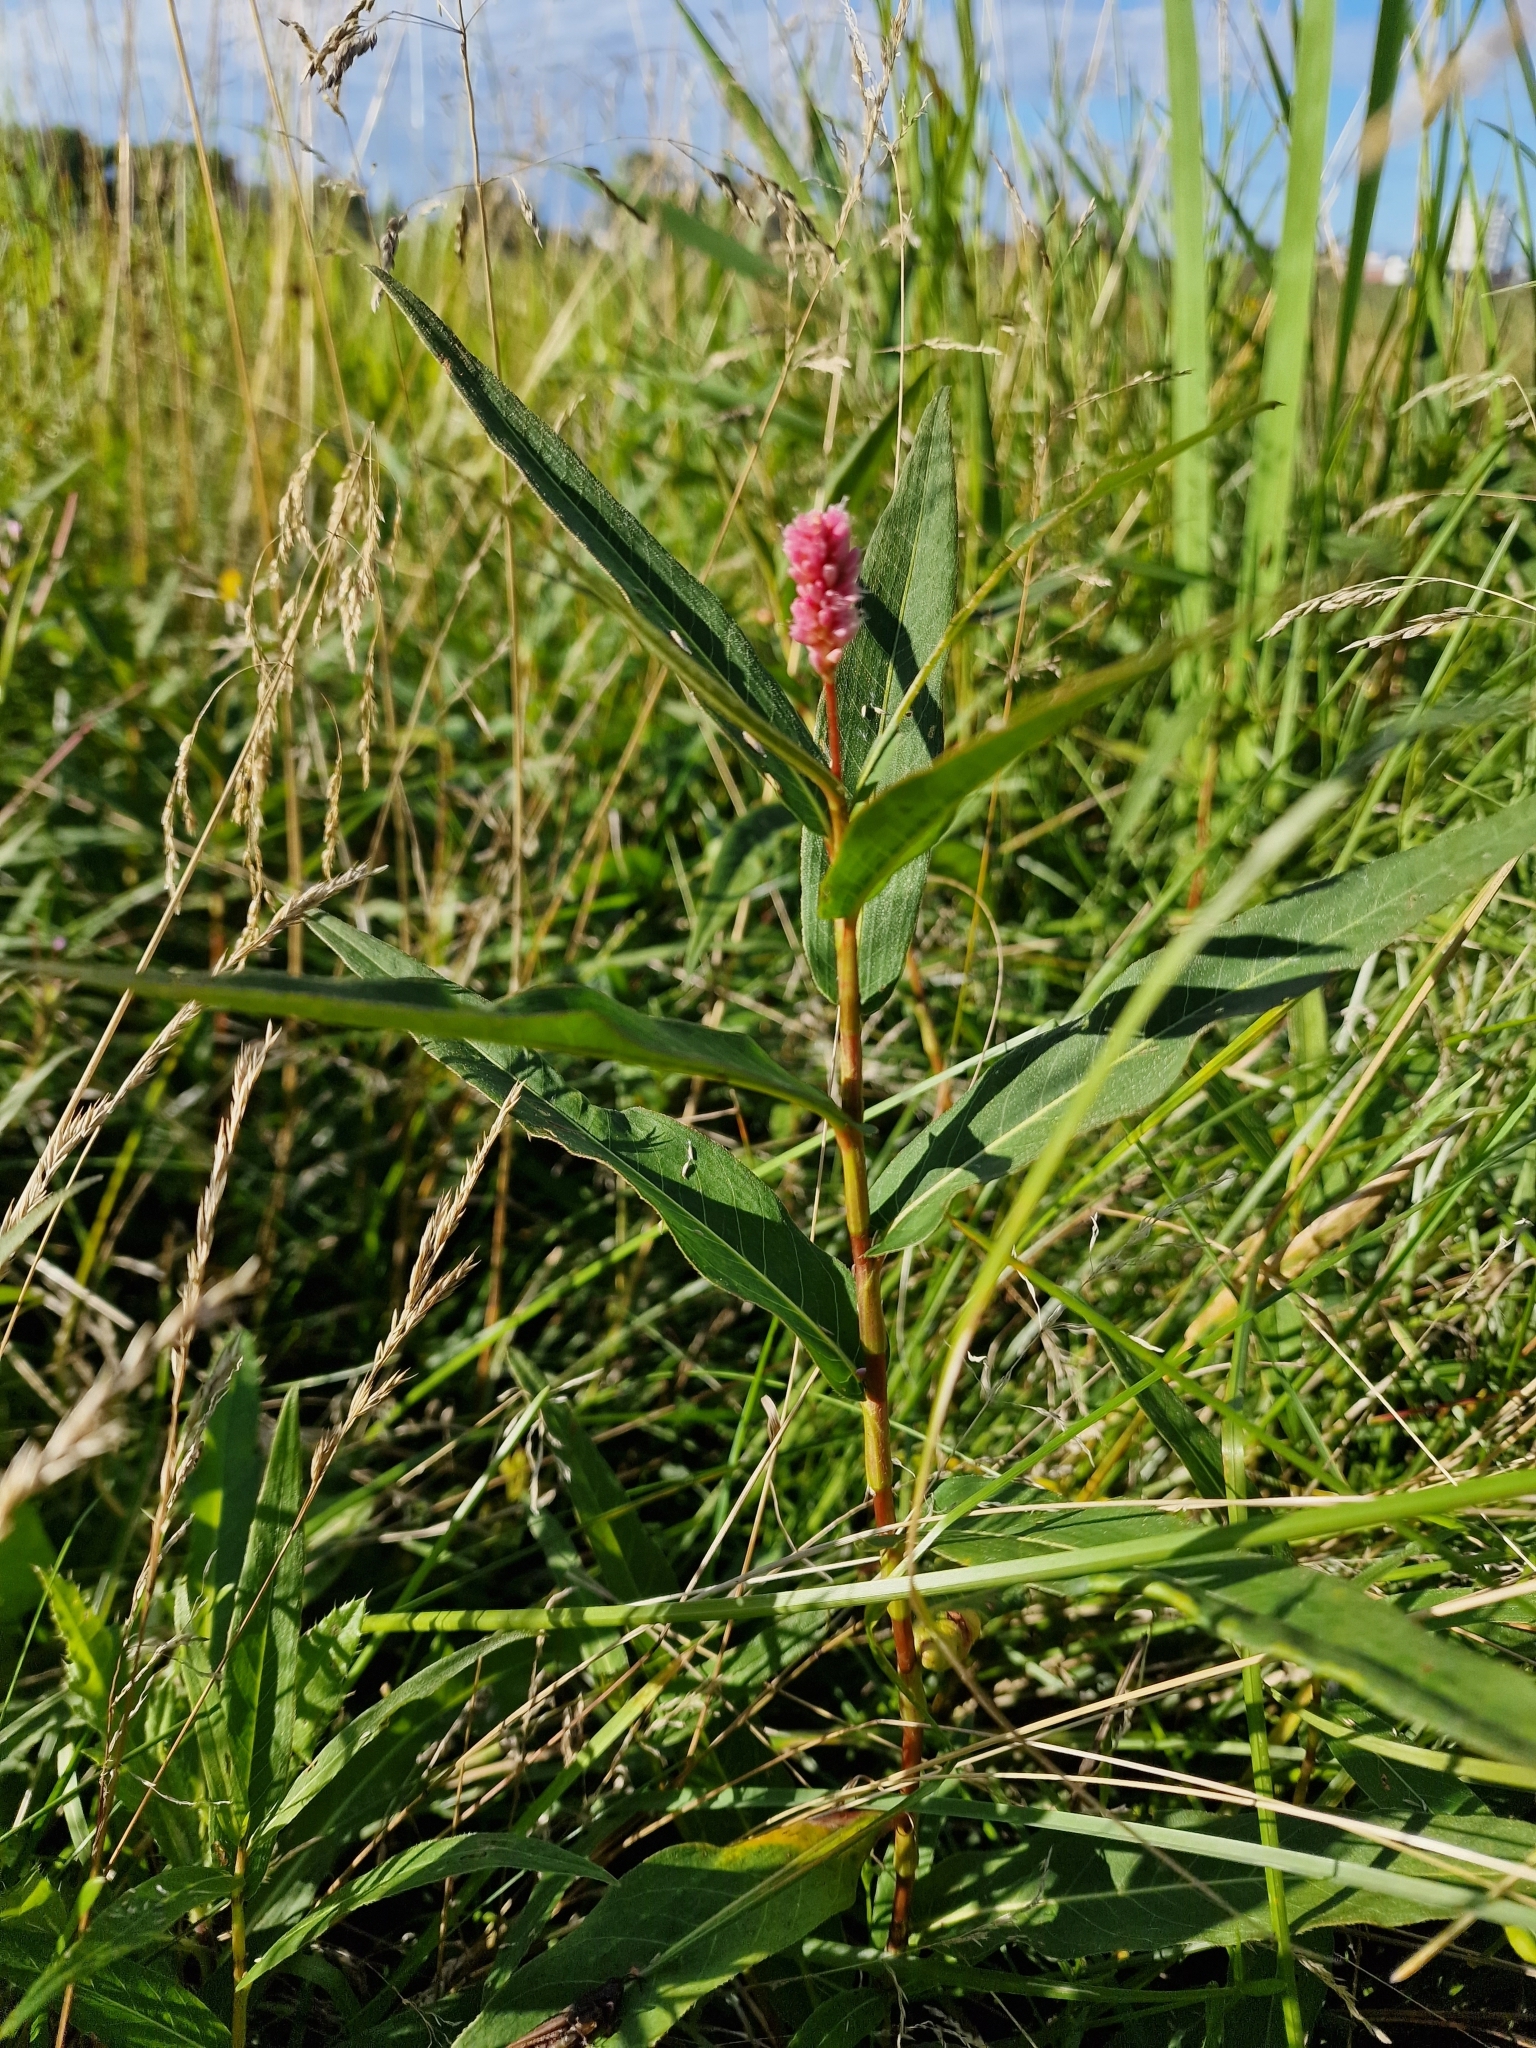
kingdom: Plantae
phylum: Tracheophyta
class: Magnoliopsida
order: Caryophyllales
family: Polygonaceae
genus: Persicaria
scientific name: Persicaria amphibia
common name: Amphibious bistort
